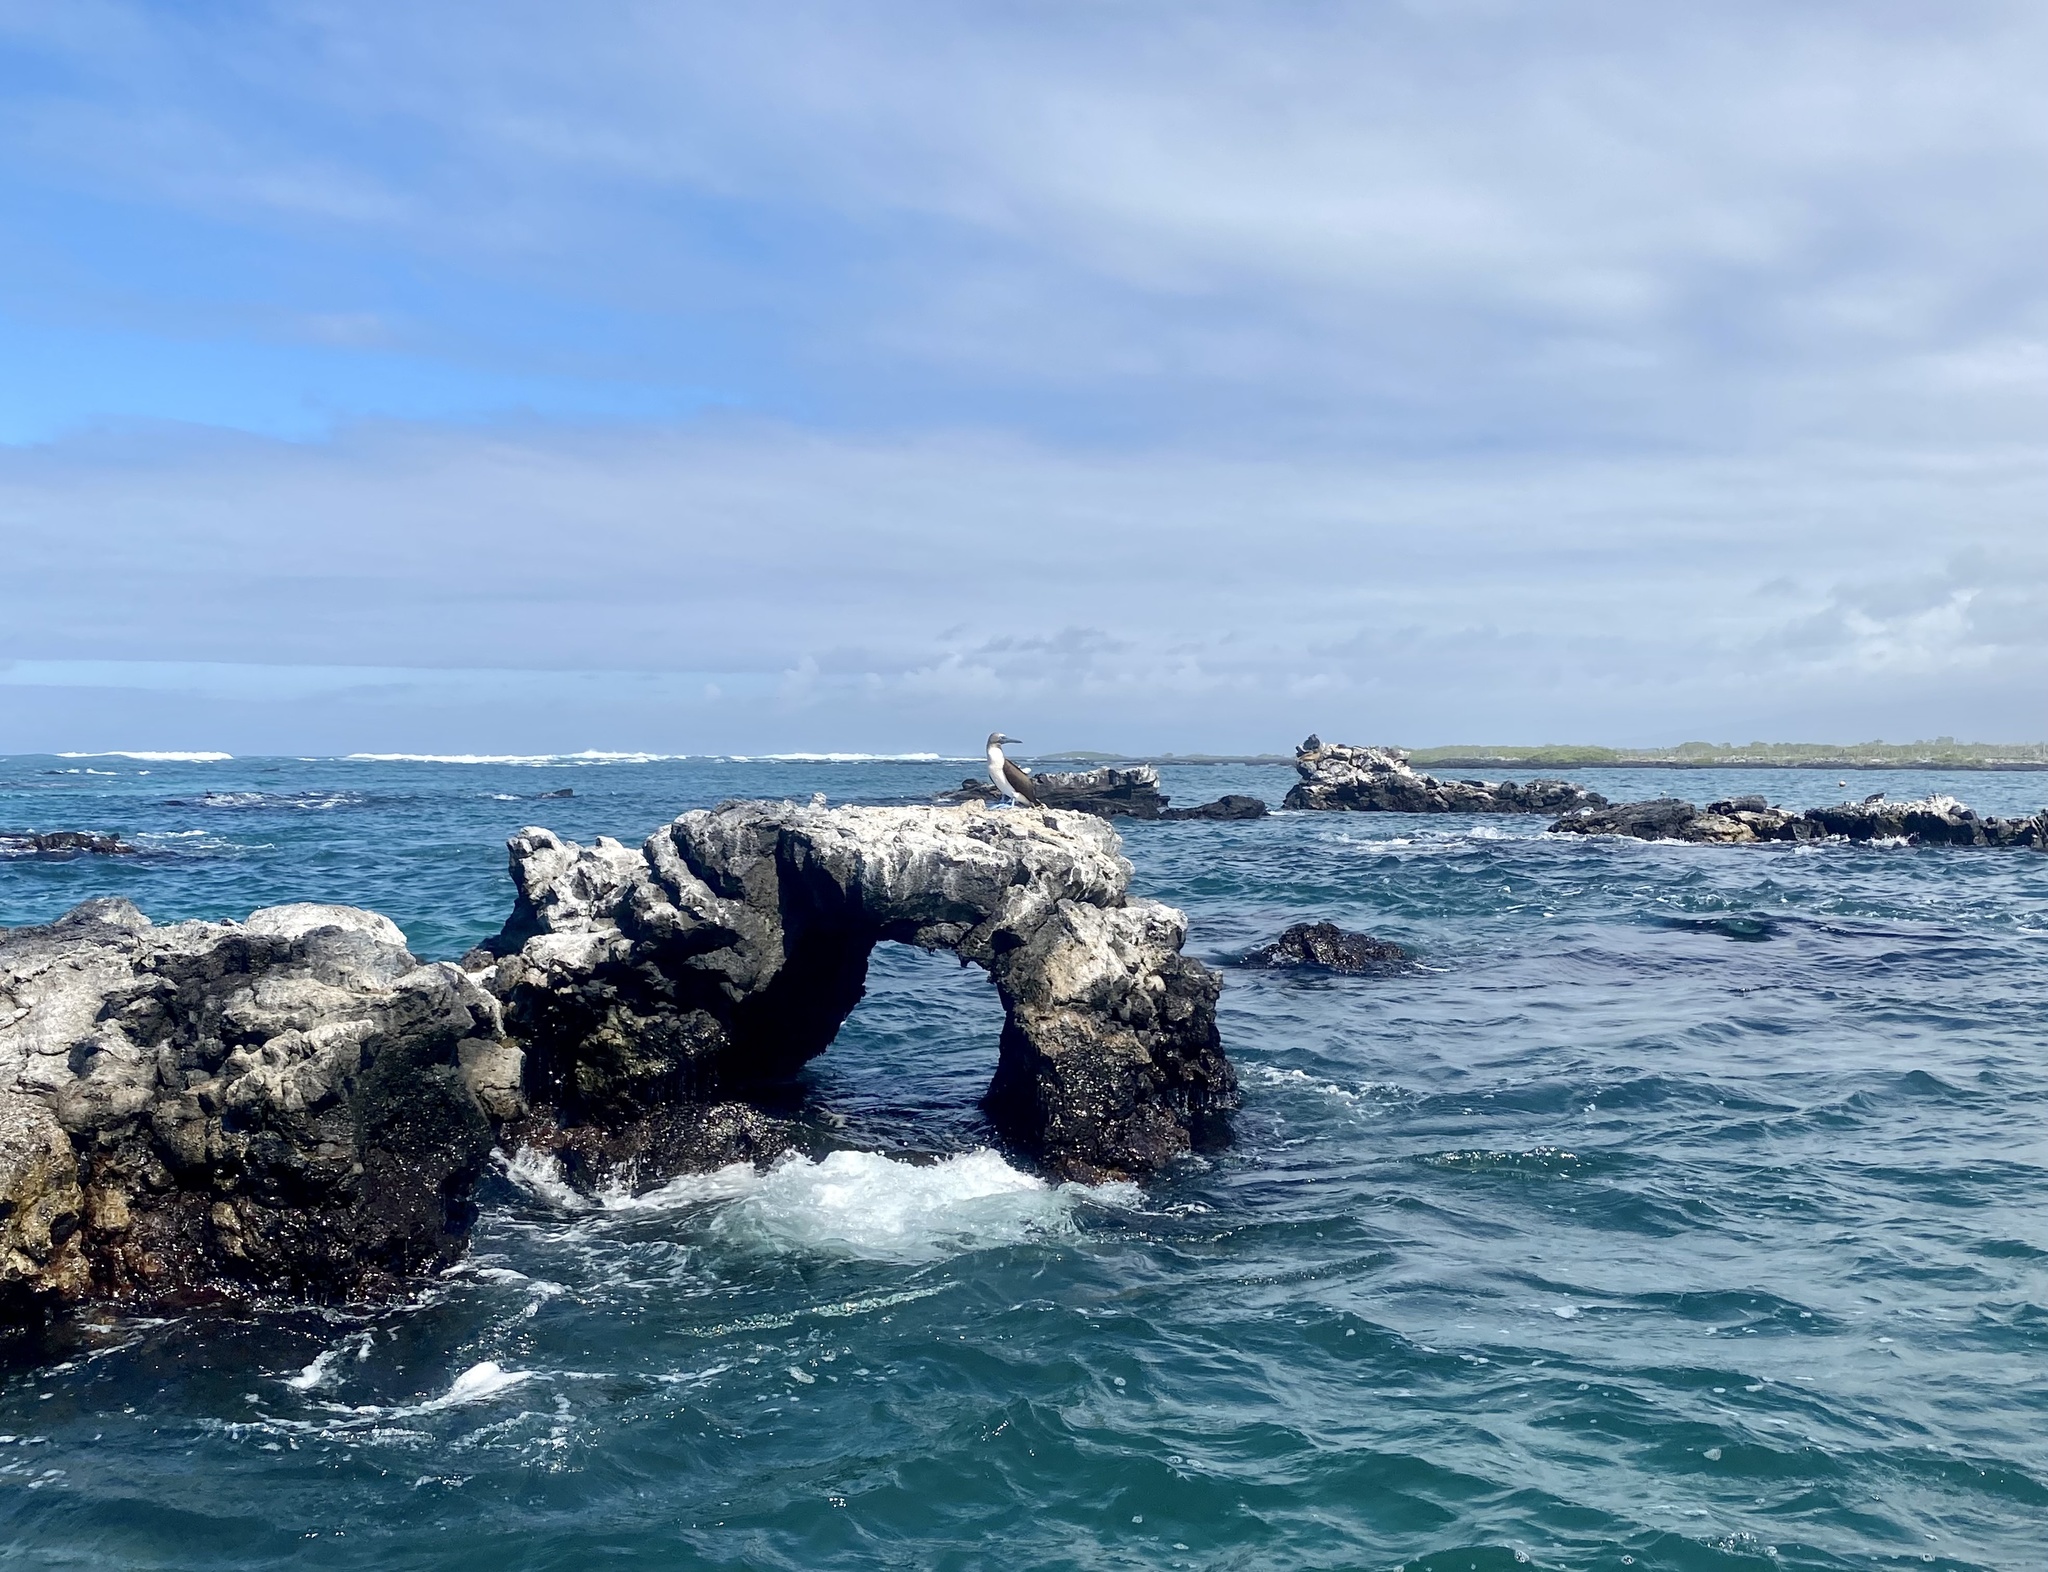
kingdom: Animalia
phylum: Chordata
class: Aves
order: Suliformes
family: Sulidae
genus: Sula
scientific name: Sula nebouxii
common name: Blue-footed booby
